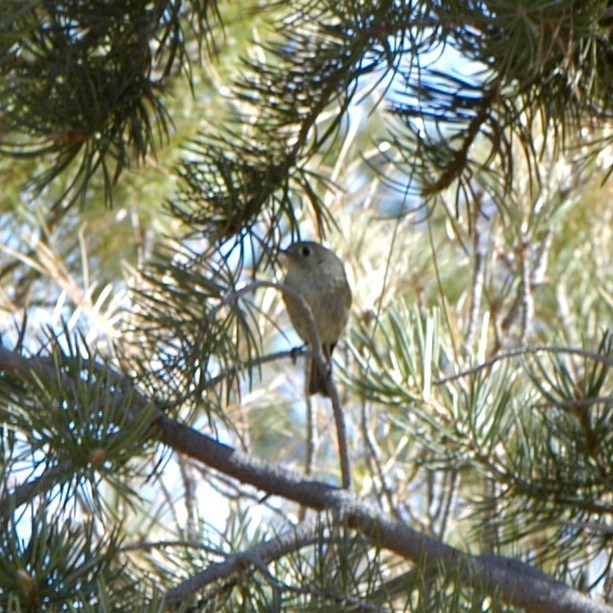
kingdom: Animalia
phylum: Chordata
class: Aves
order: Passeriformes
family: Regulidae
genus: Regulus
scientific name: Regulus calendula
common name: Ruby-crowned kinglet
